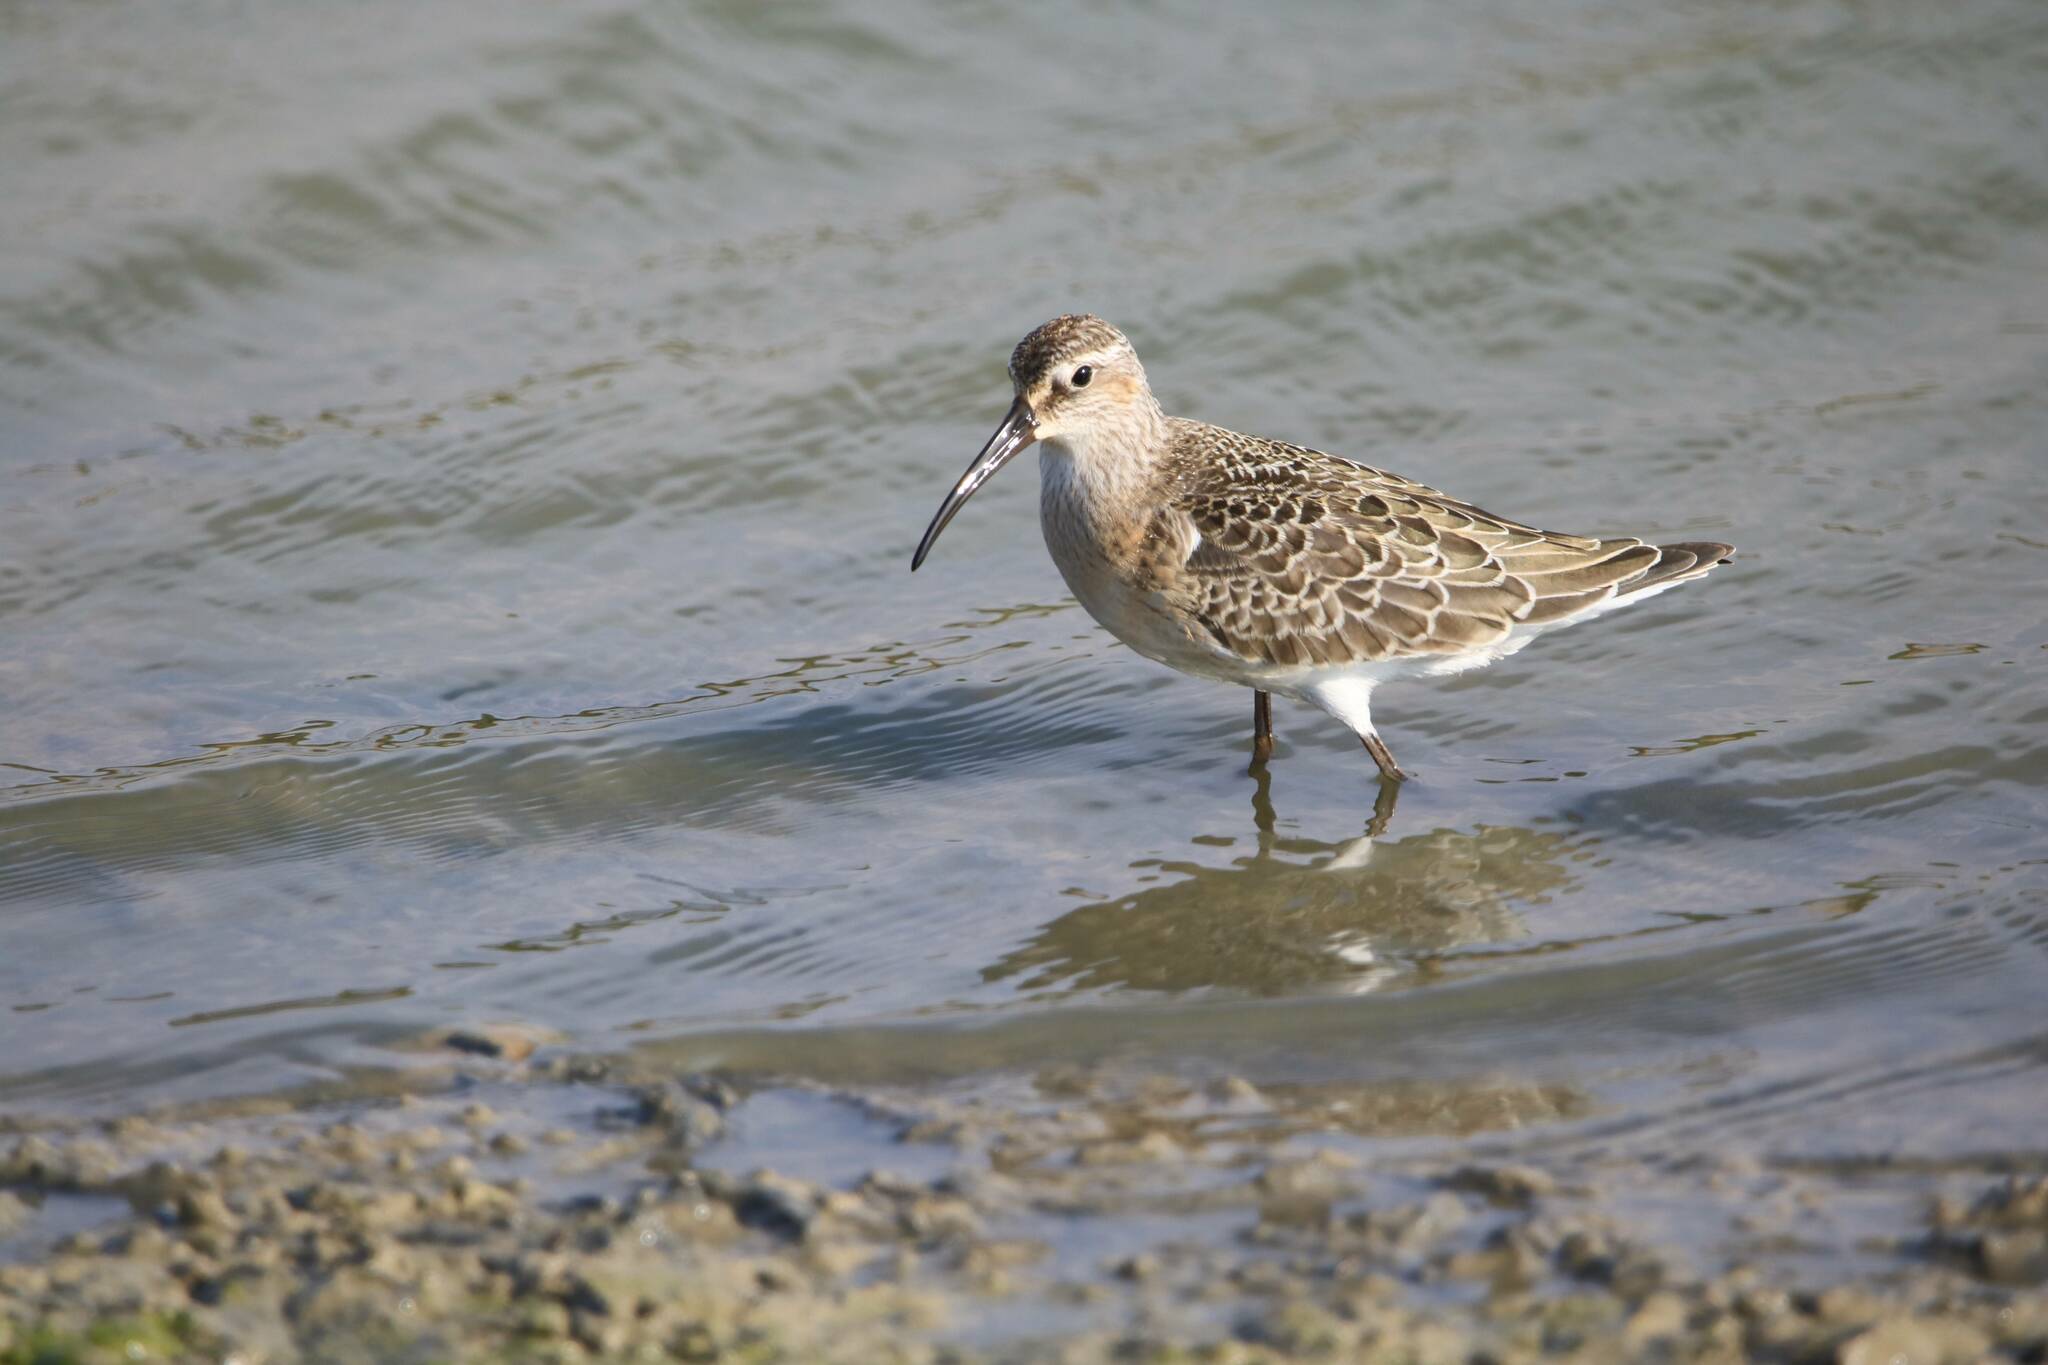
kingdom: Animalia
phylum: Chordata
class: Aves
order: Charadriiformes
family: Scolopacidae
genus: Calidris
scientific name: Calidris ferruginea
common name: Curlew sandpiper
